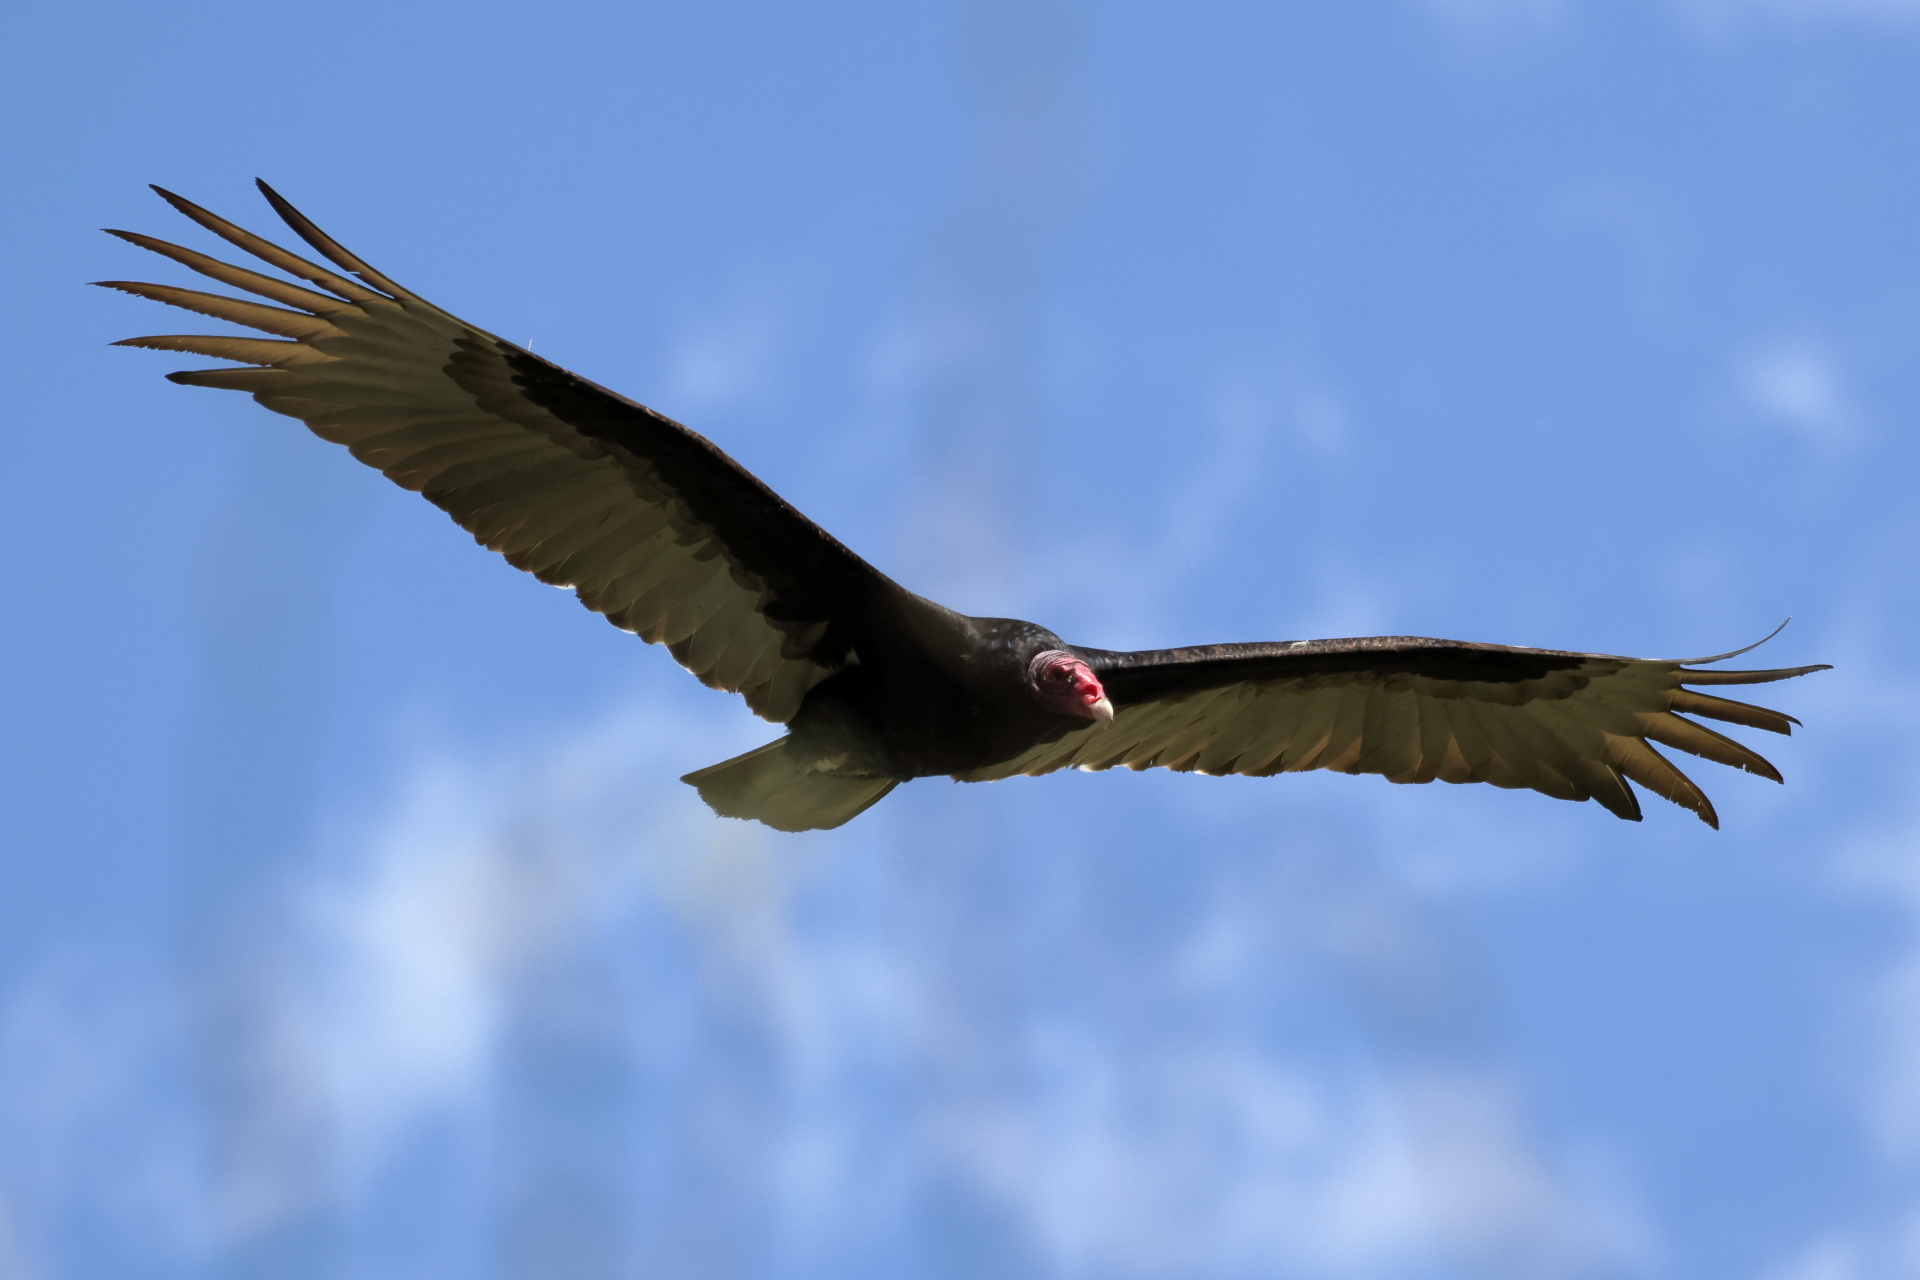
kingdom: Animalia
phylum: Chordata
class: Aves
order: Accipitriformes
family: Cathartidae
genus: Cathartes
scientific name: Cathartes aura
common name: Turkey vulture
